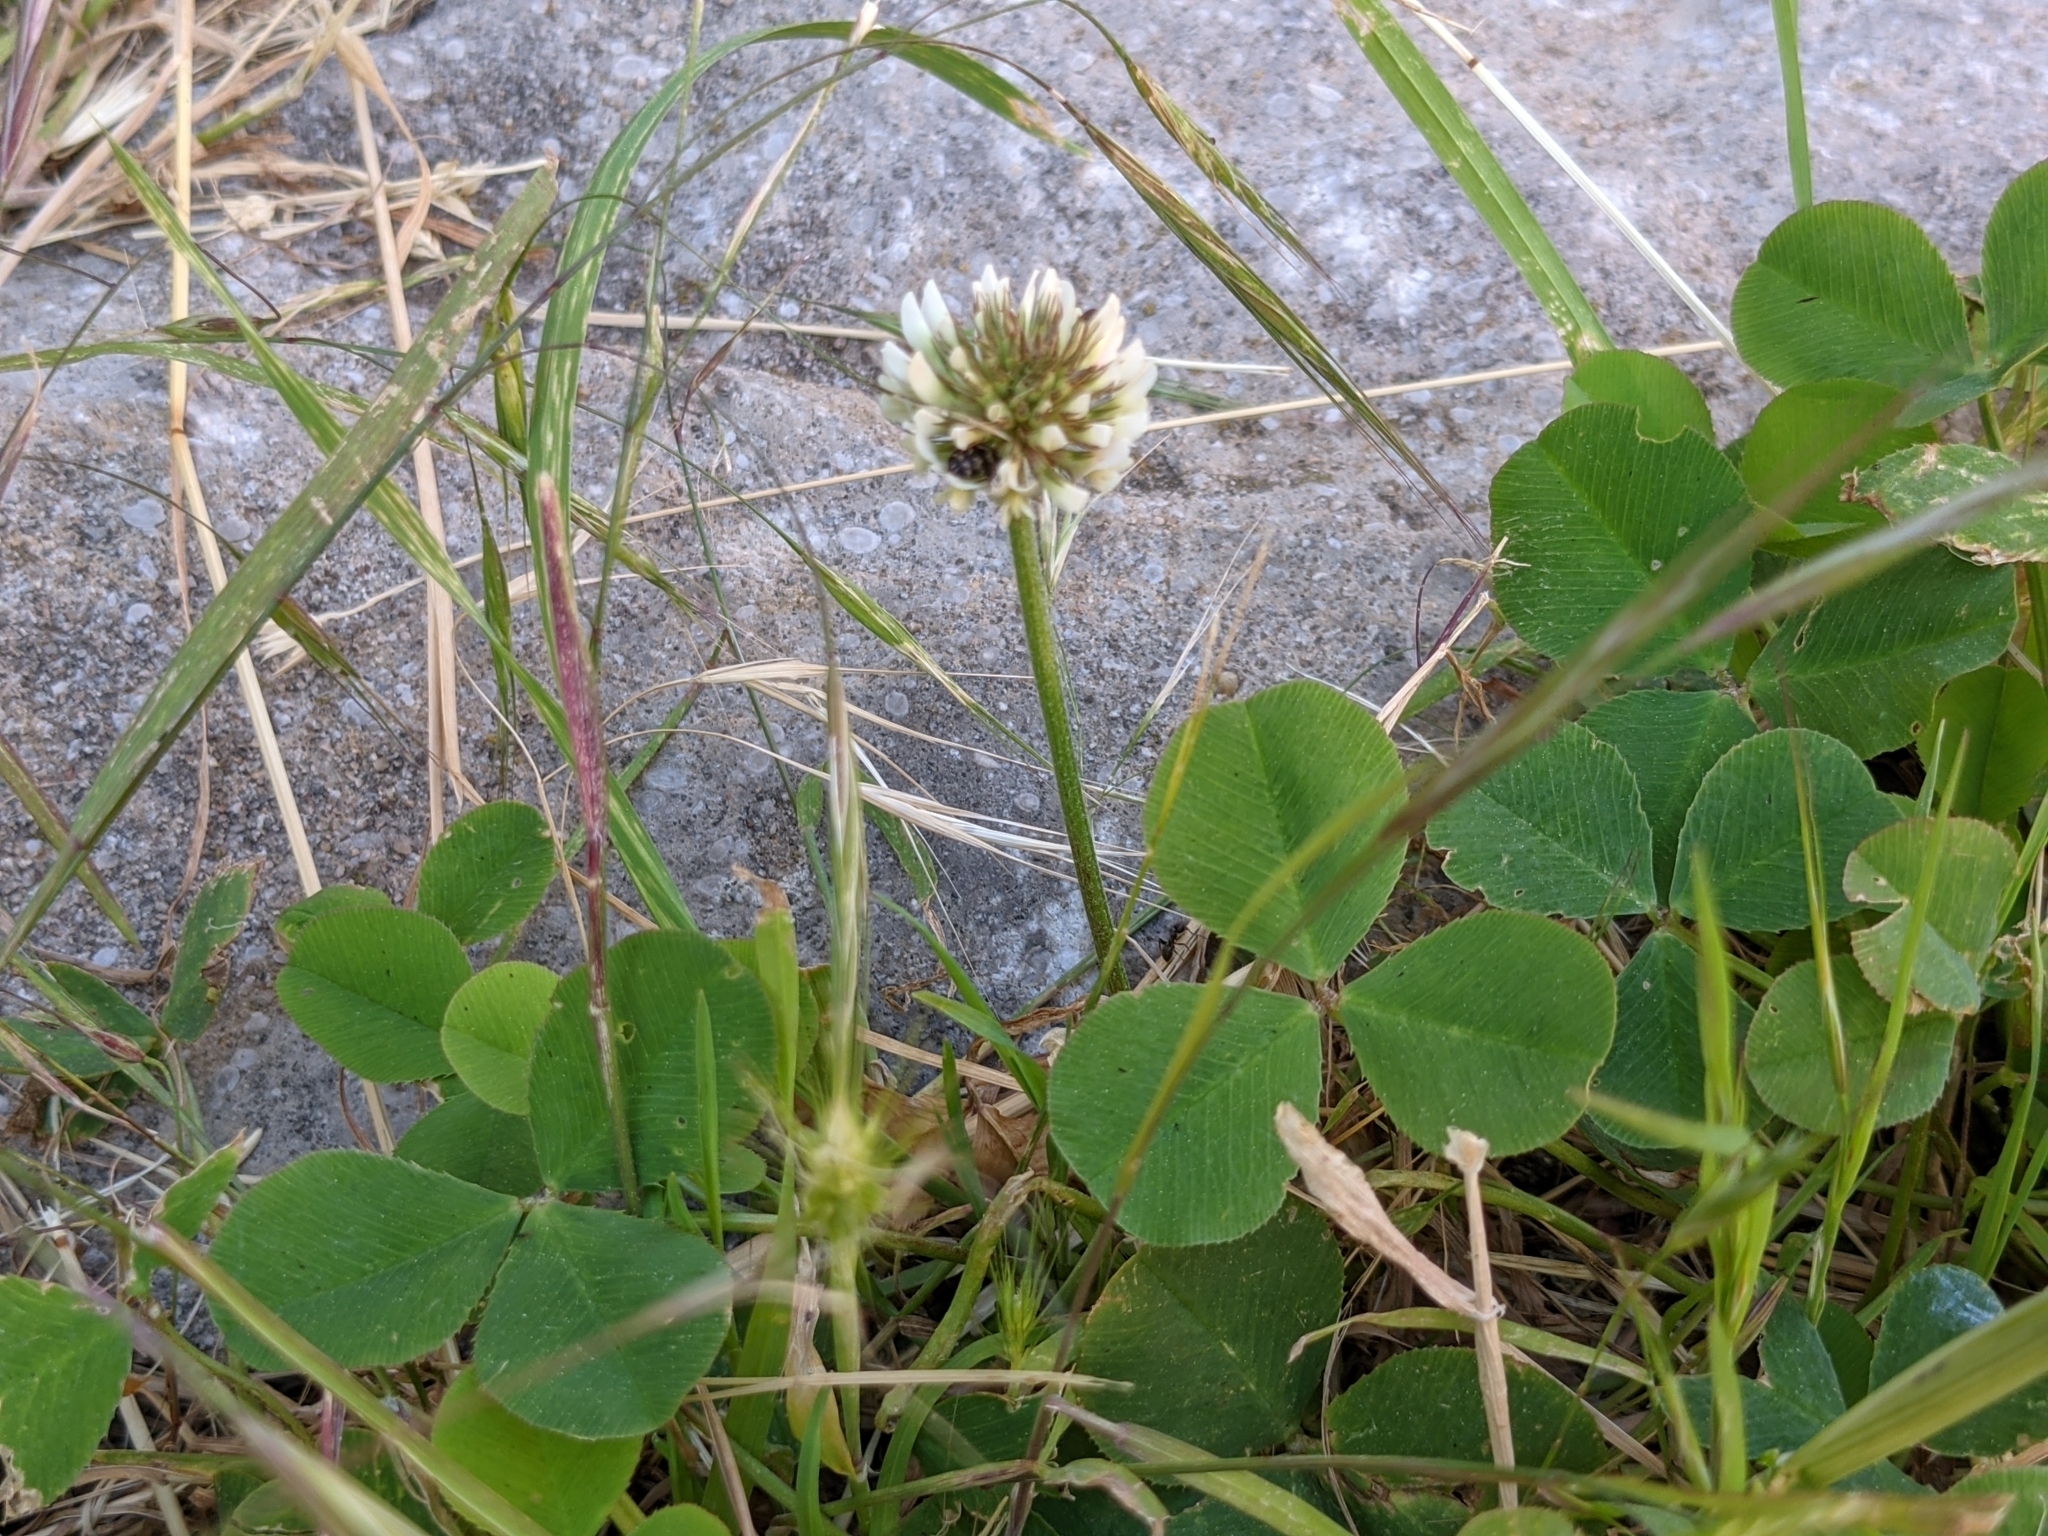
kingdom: Plantae
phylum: Tracheophyta
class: Magnoliopsida
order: Fabales
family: Fabaceae
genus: Trifolium
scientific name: Trifolium repens
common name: White clover
